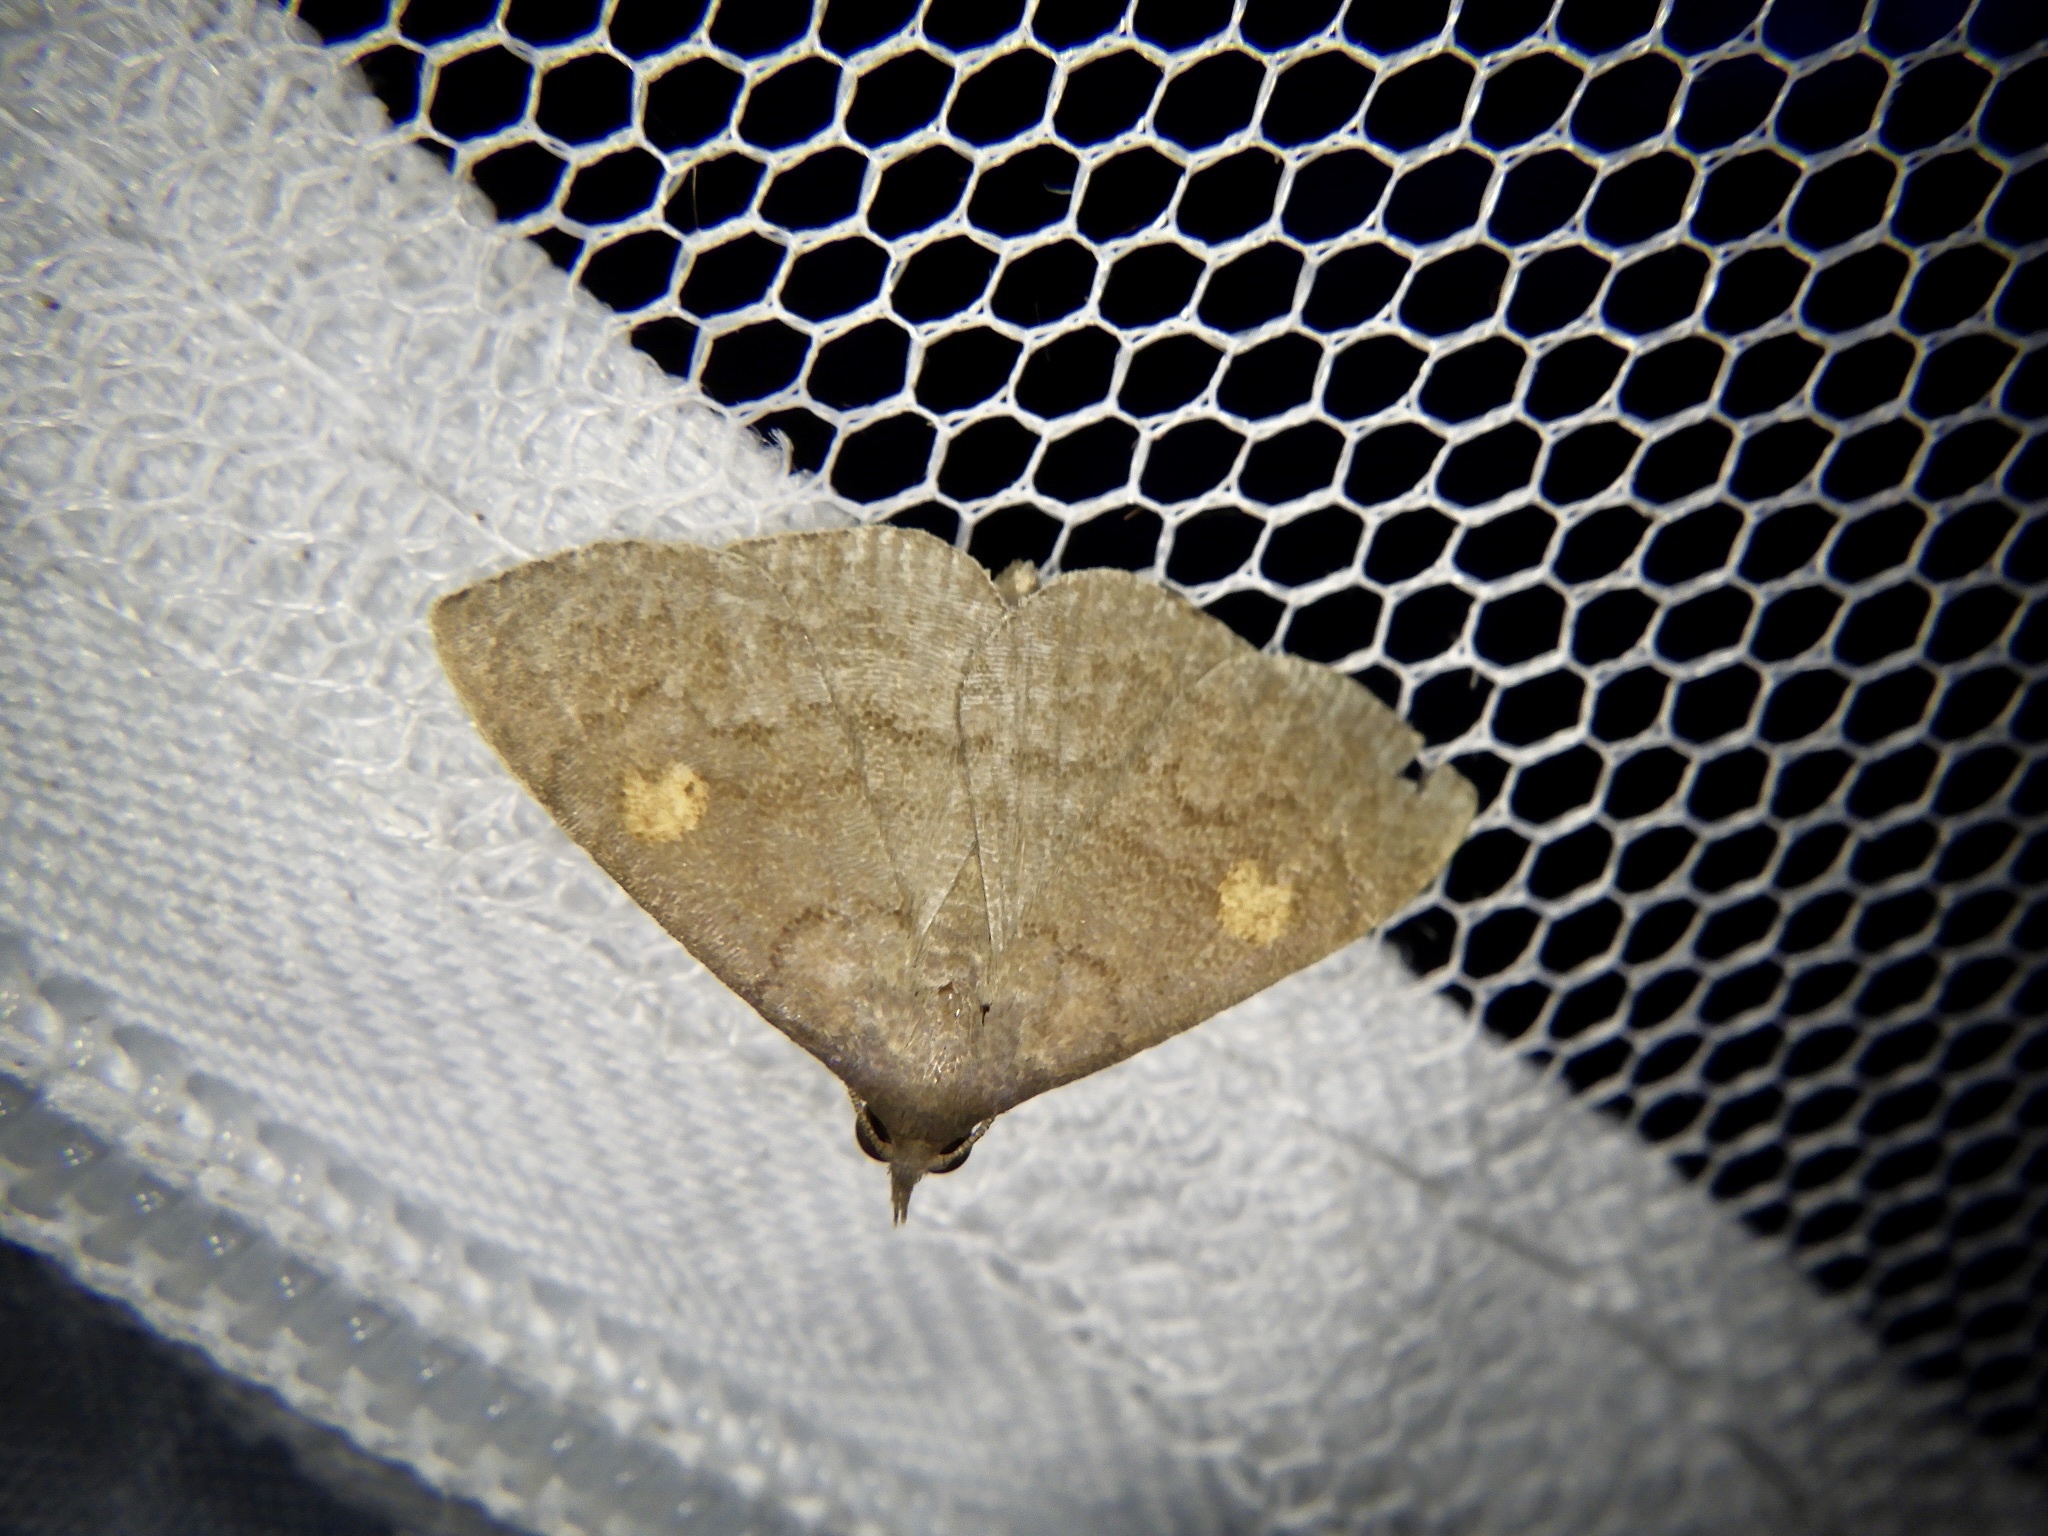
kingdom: Animalia
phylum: Arthropoda
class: Insecta
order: Lepidoptera
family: Erebidae
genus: Paracolax
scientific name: Paracolax sugii
